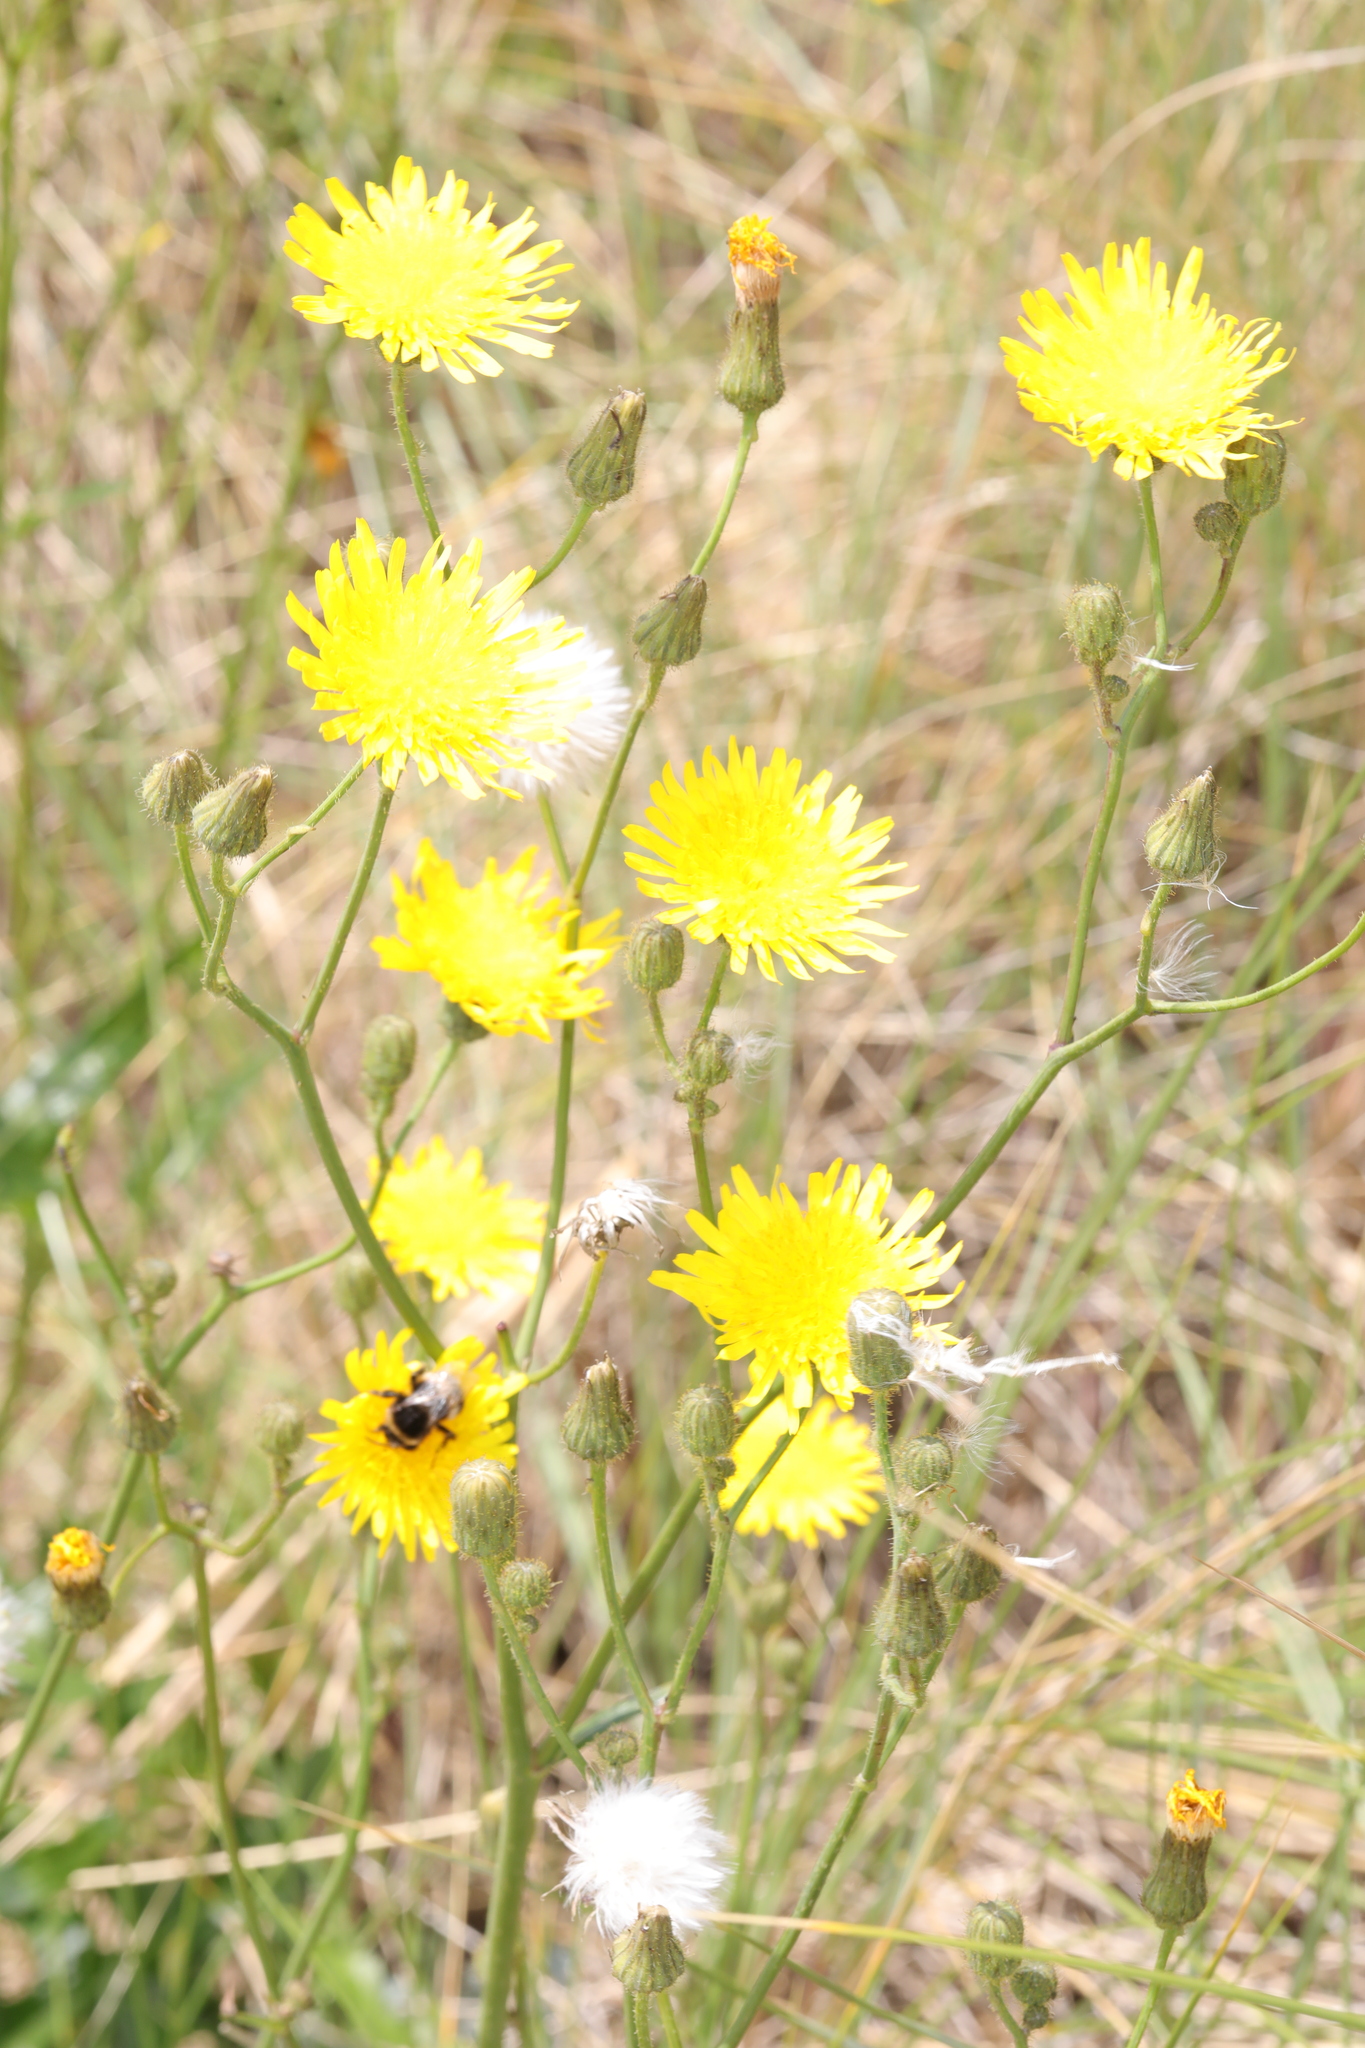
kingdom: Plantae
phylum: Tracheophyta
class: Magnoliopsida
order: Asterales
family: Asteraceae
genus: Sonchus
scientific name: Sonchus arvensis
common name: Perennial sow-thistle
